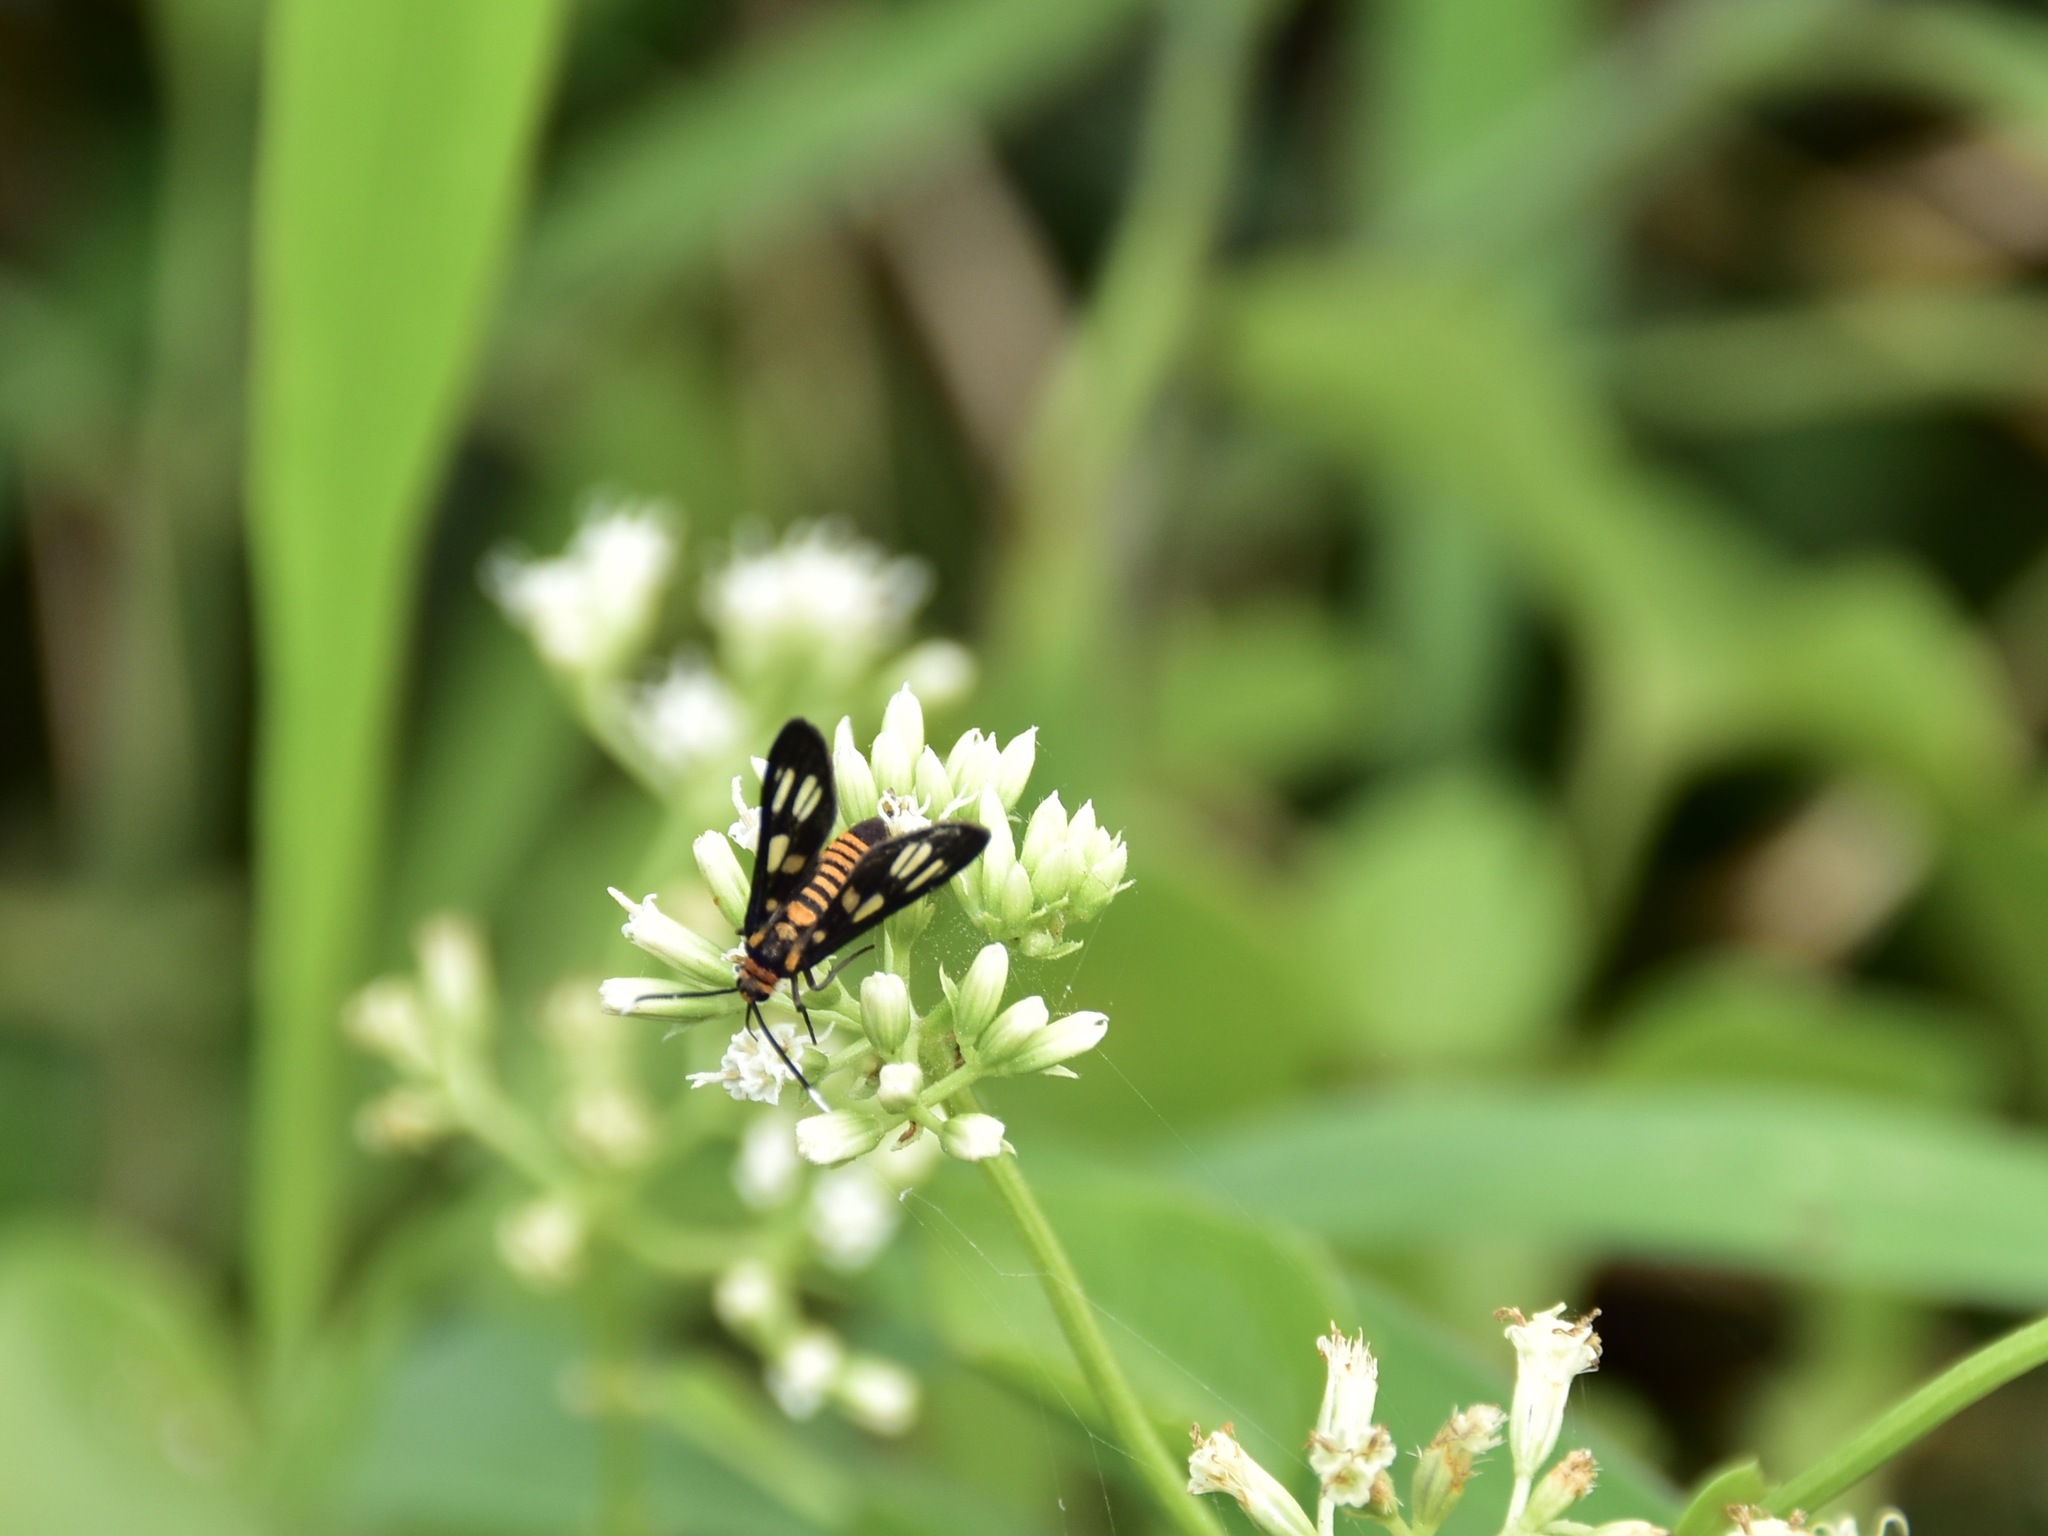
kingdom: Plantae
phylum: Tracheophyta
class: Magnoliopsida
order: Asterales
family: Asteraceae
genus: Mikania
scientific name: Mikania micrantha
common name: Mile-a-minute
